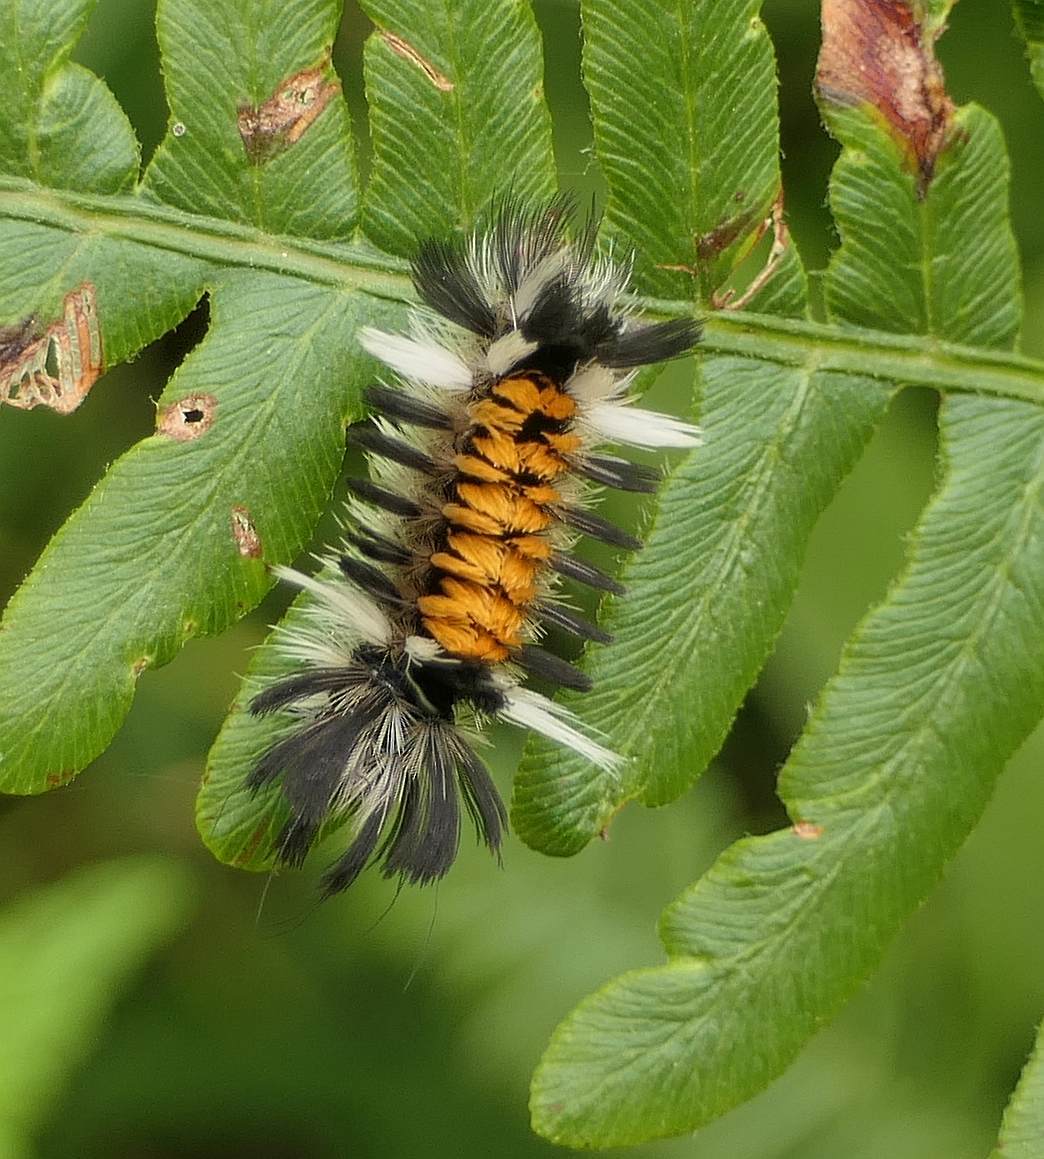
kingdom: Animalia
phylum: Arthropoda
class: Insecta
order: Lepidoptera
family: Erebidae
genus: Euchaetes
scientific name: Euchaetes egle
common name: Milkweed tussock moth
